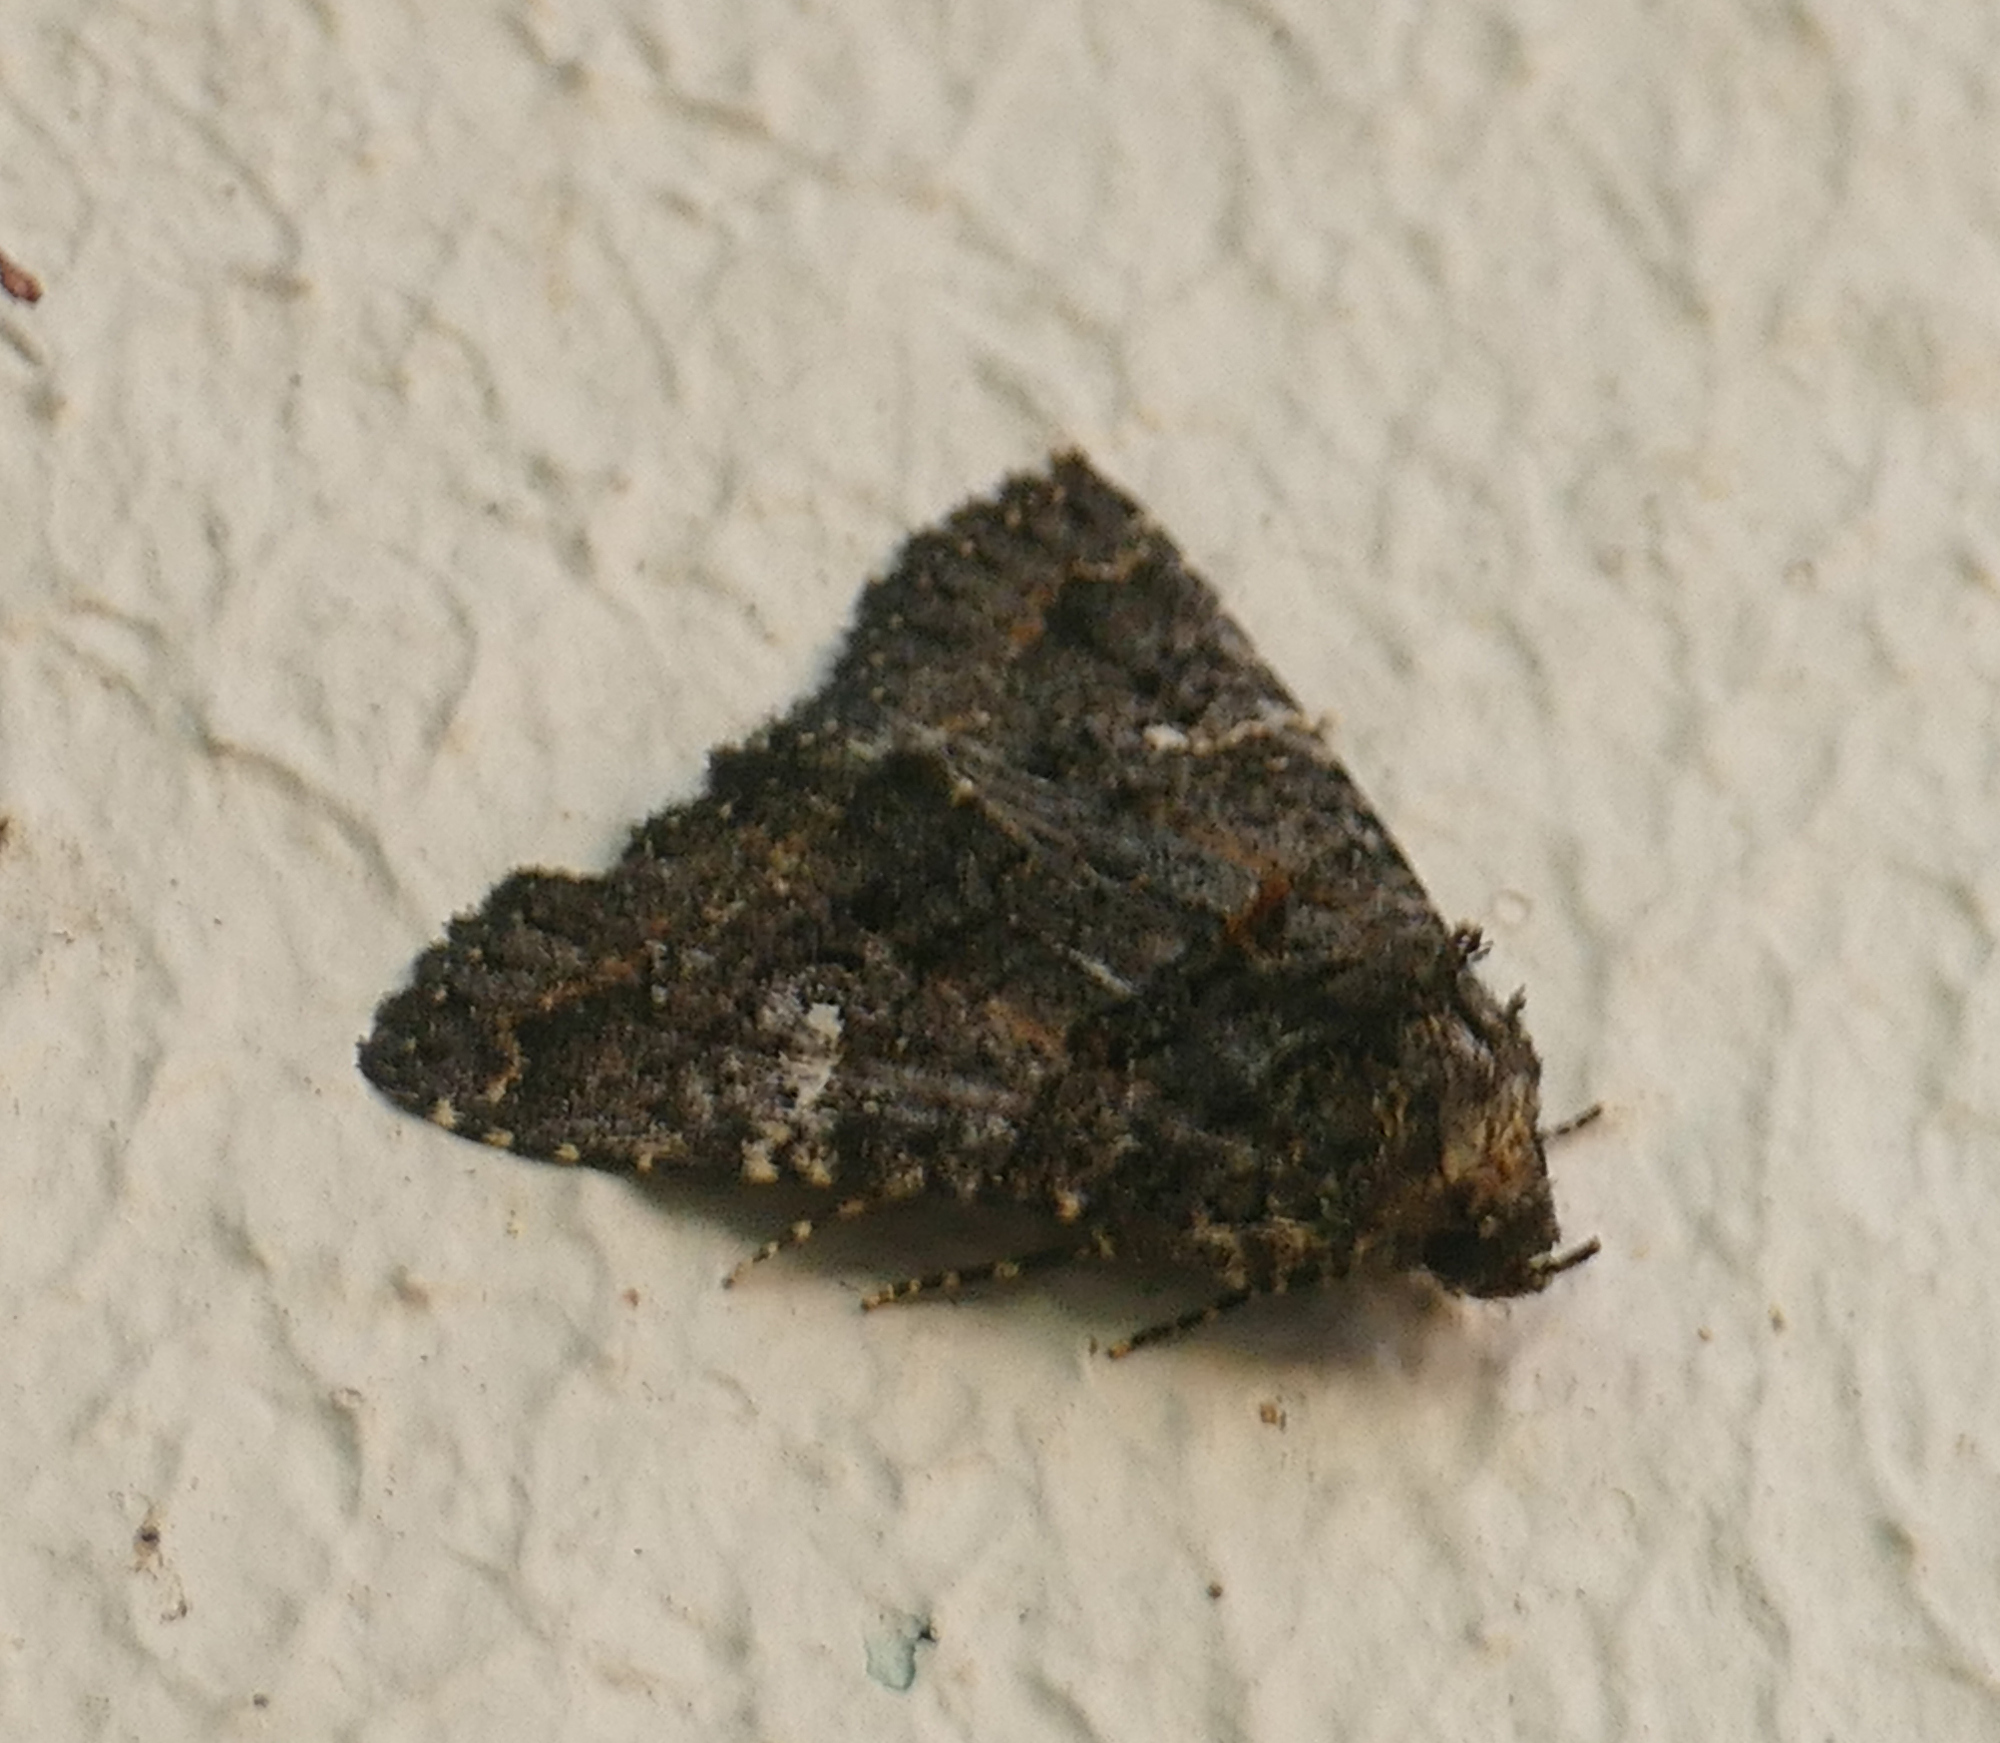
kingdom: Animalia
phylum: Arthropoda
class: Insecta
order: Lepidoptera
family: Erebidae
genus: Coxina
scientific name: Coxina cinctipalpis
